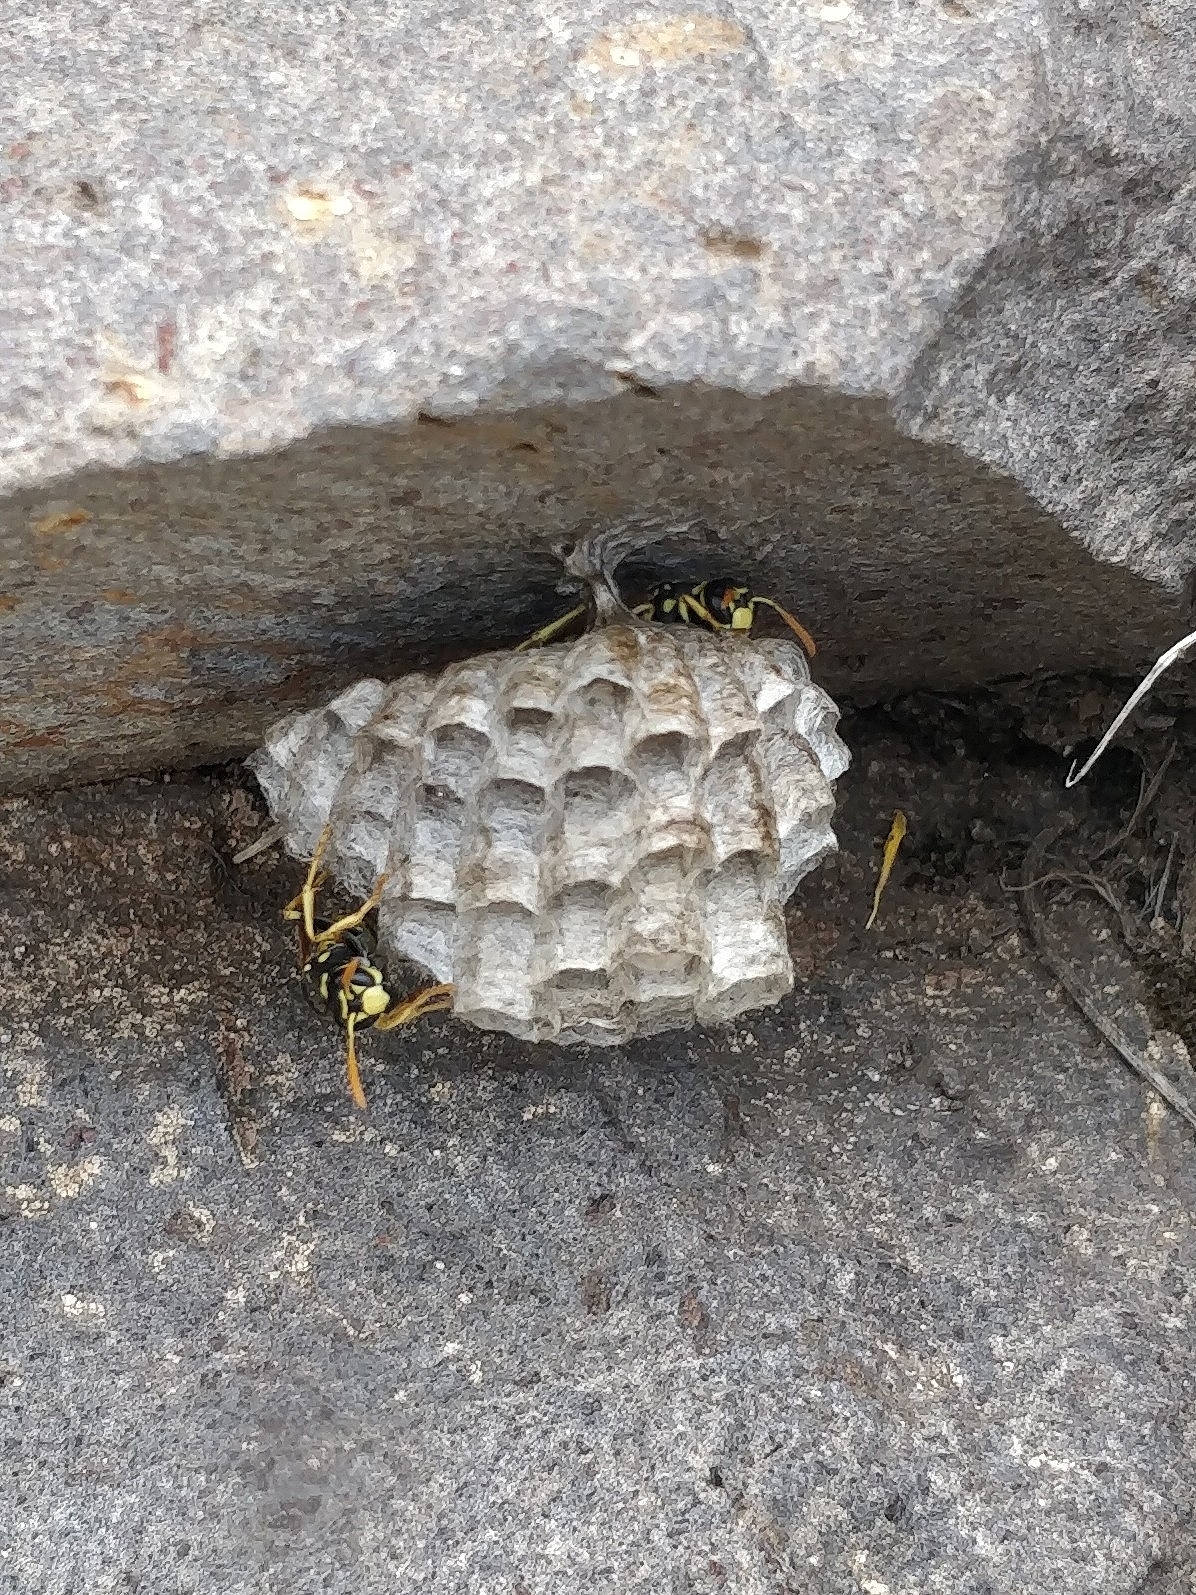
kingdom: Animalia
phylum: Arthropoda
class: Insecta
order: Hymenoptera
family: Eumenidae
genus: Polistes
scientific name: Polistes dominula
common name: Paper wasp
